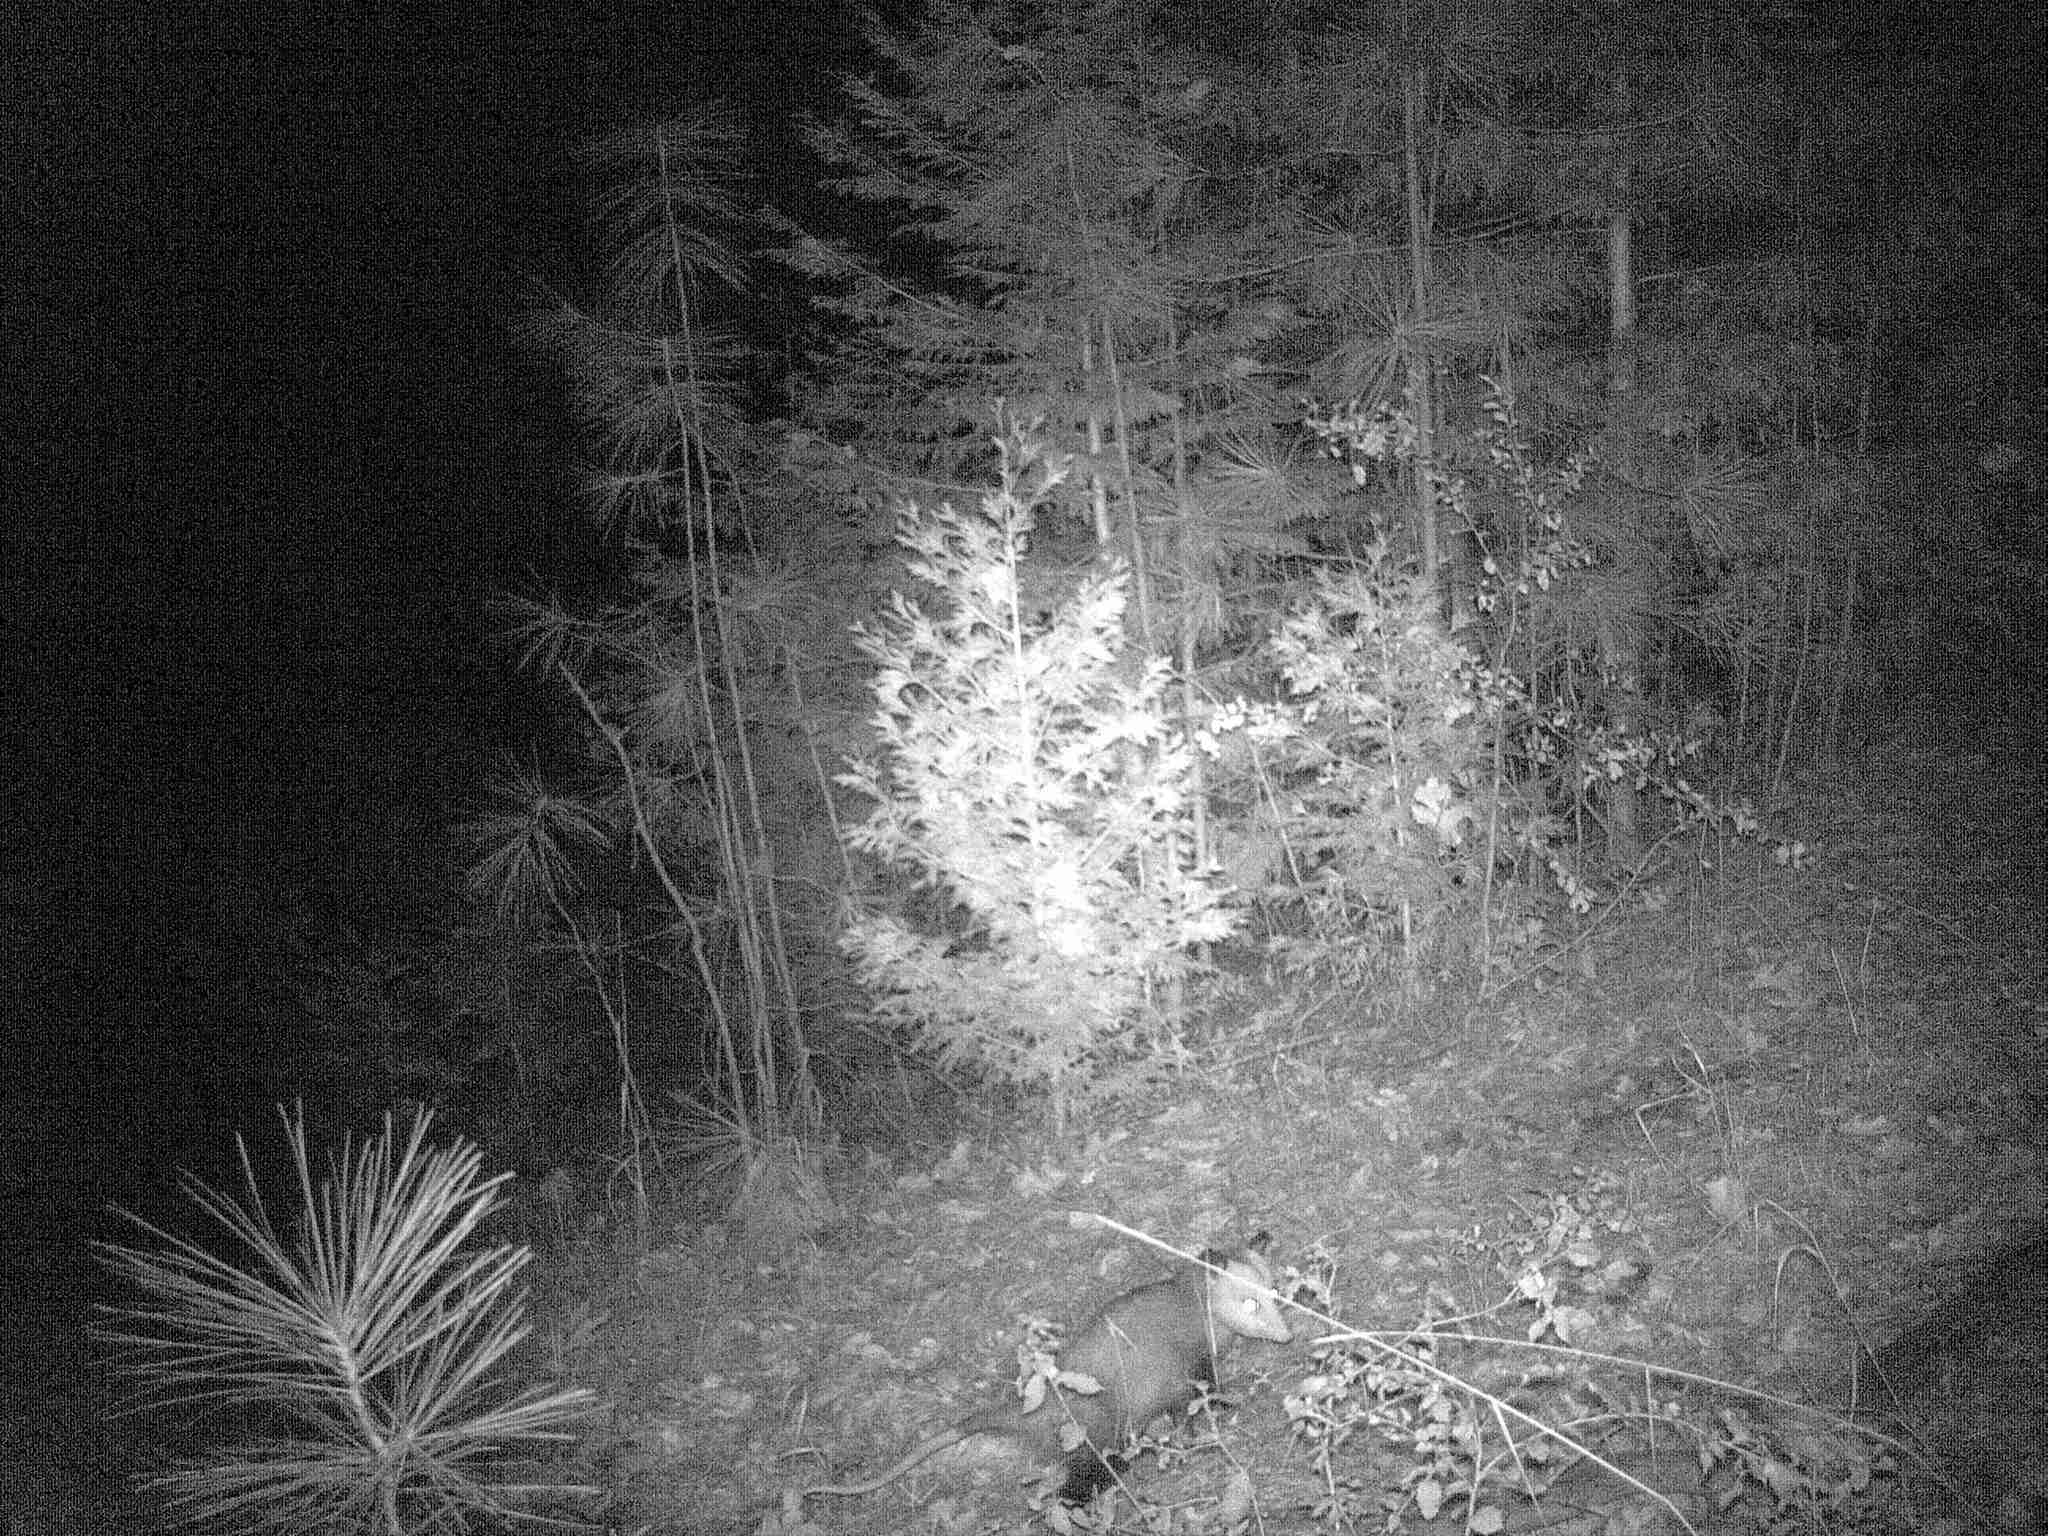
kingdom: Animalia
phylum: Chordata
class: Mammalia
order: Didelphimorphia
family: Didelphidae
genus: Didelphis
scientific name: Didelphis virginiana
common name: Virginia opossum
